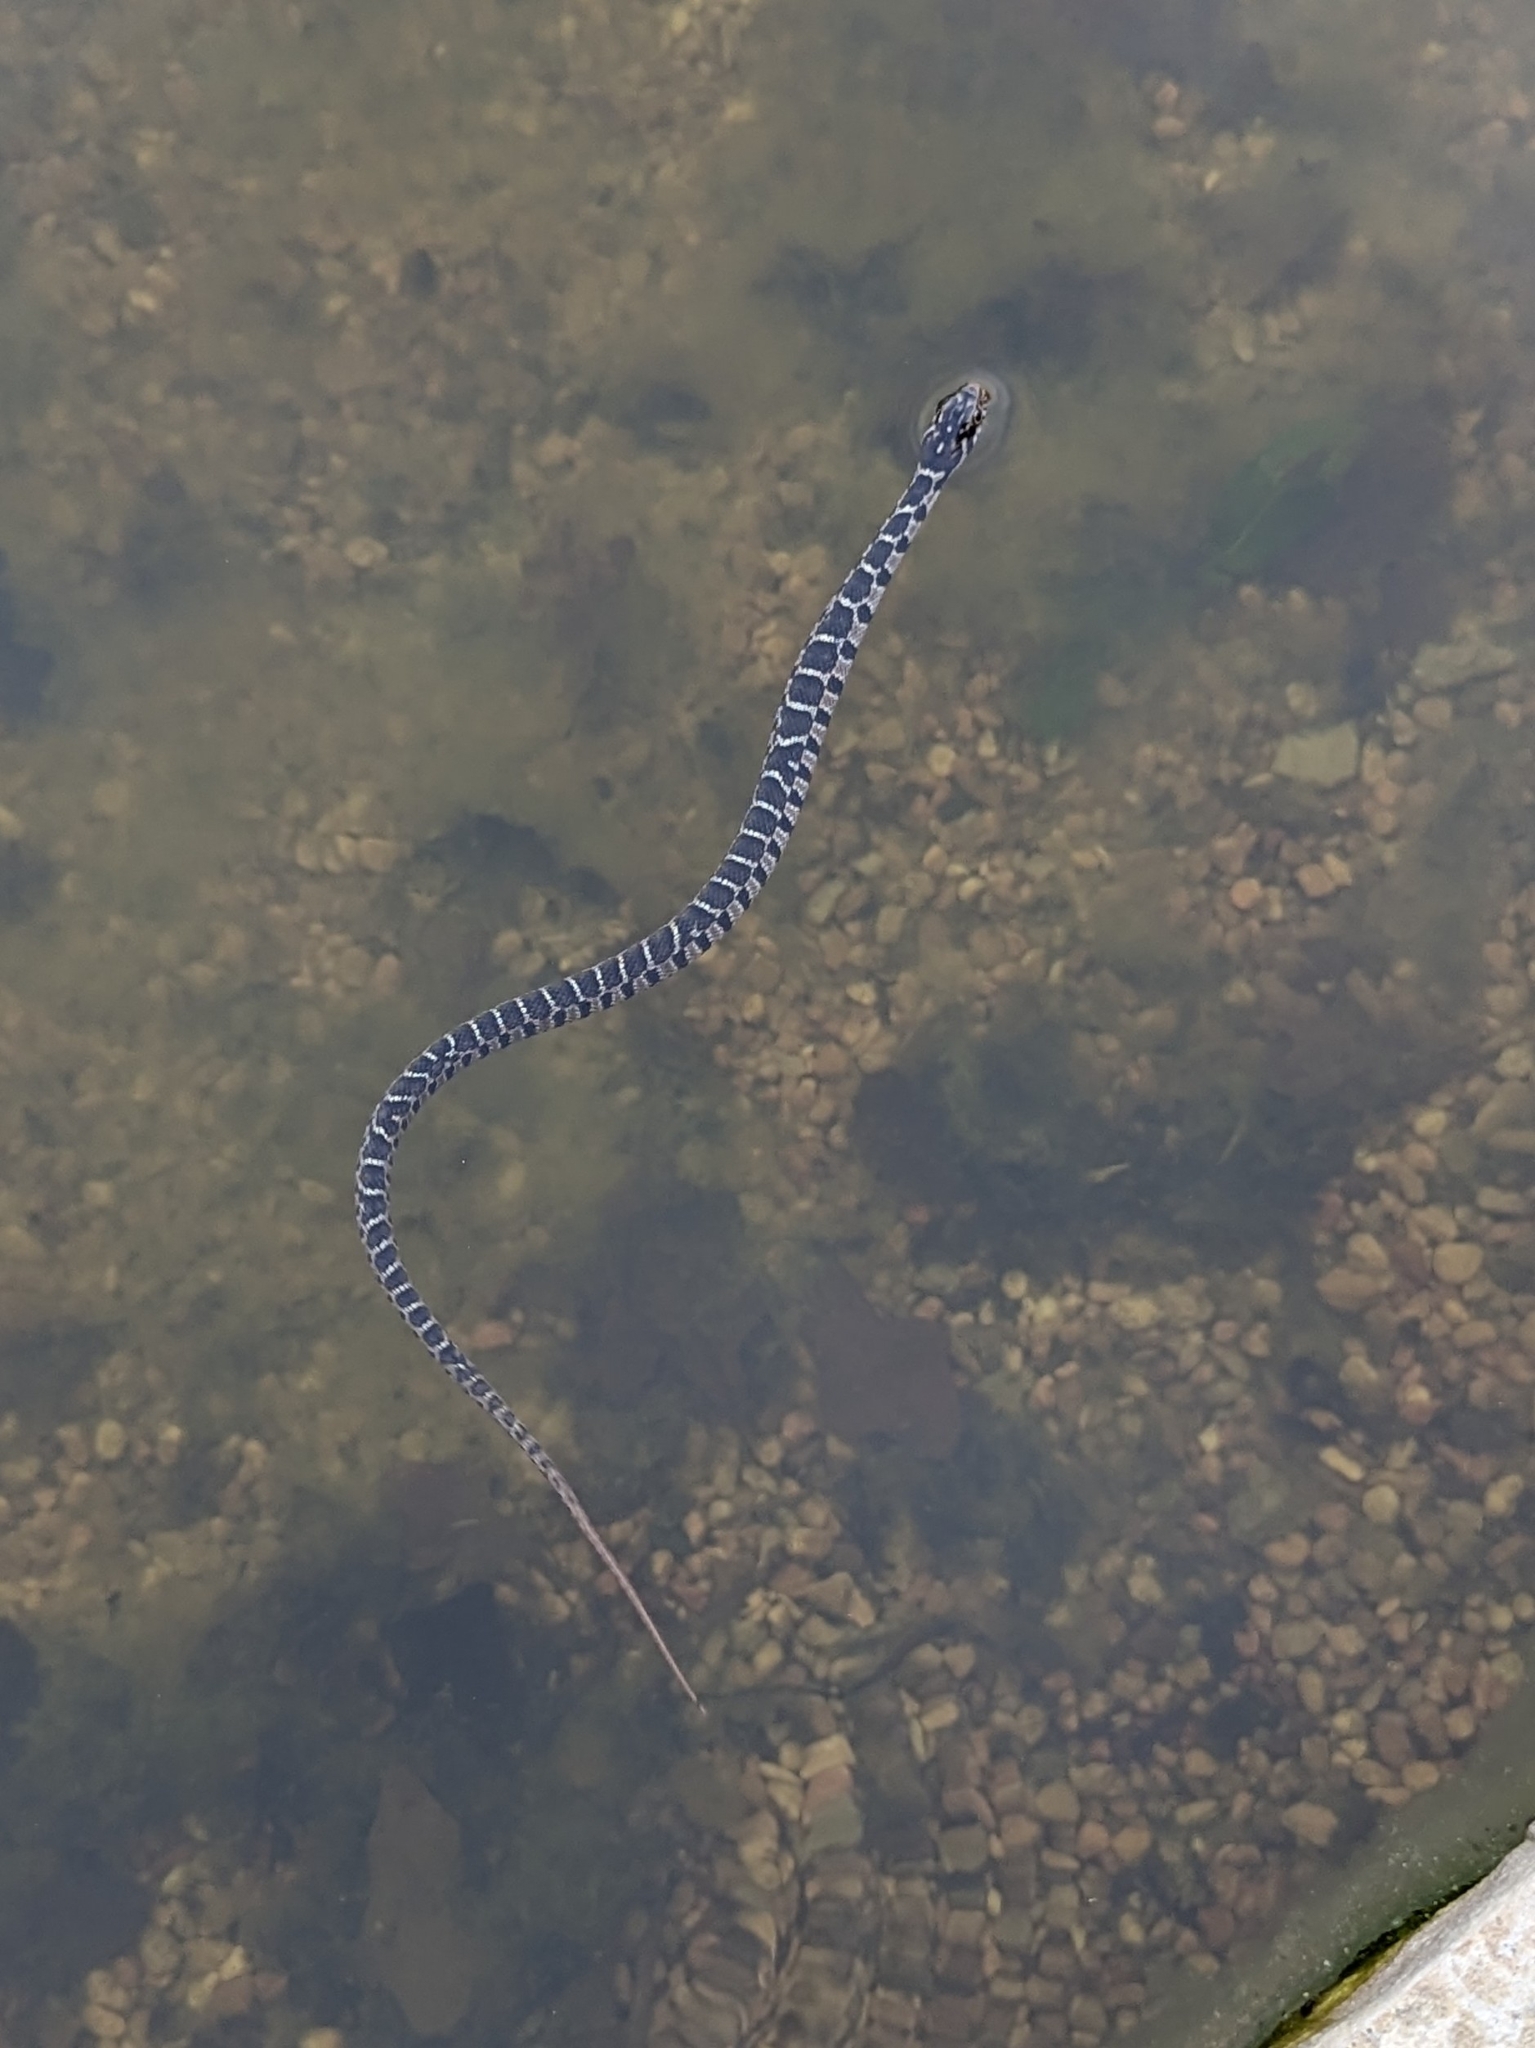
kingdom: Animalia
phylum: Chordata
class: Squamata
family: Colubridae
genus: Nerodia
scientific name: Nerodia erythrogaster
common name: Plainbelly water snake
